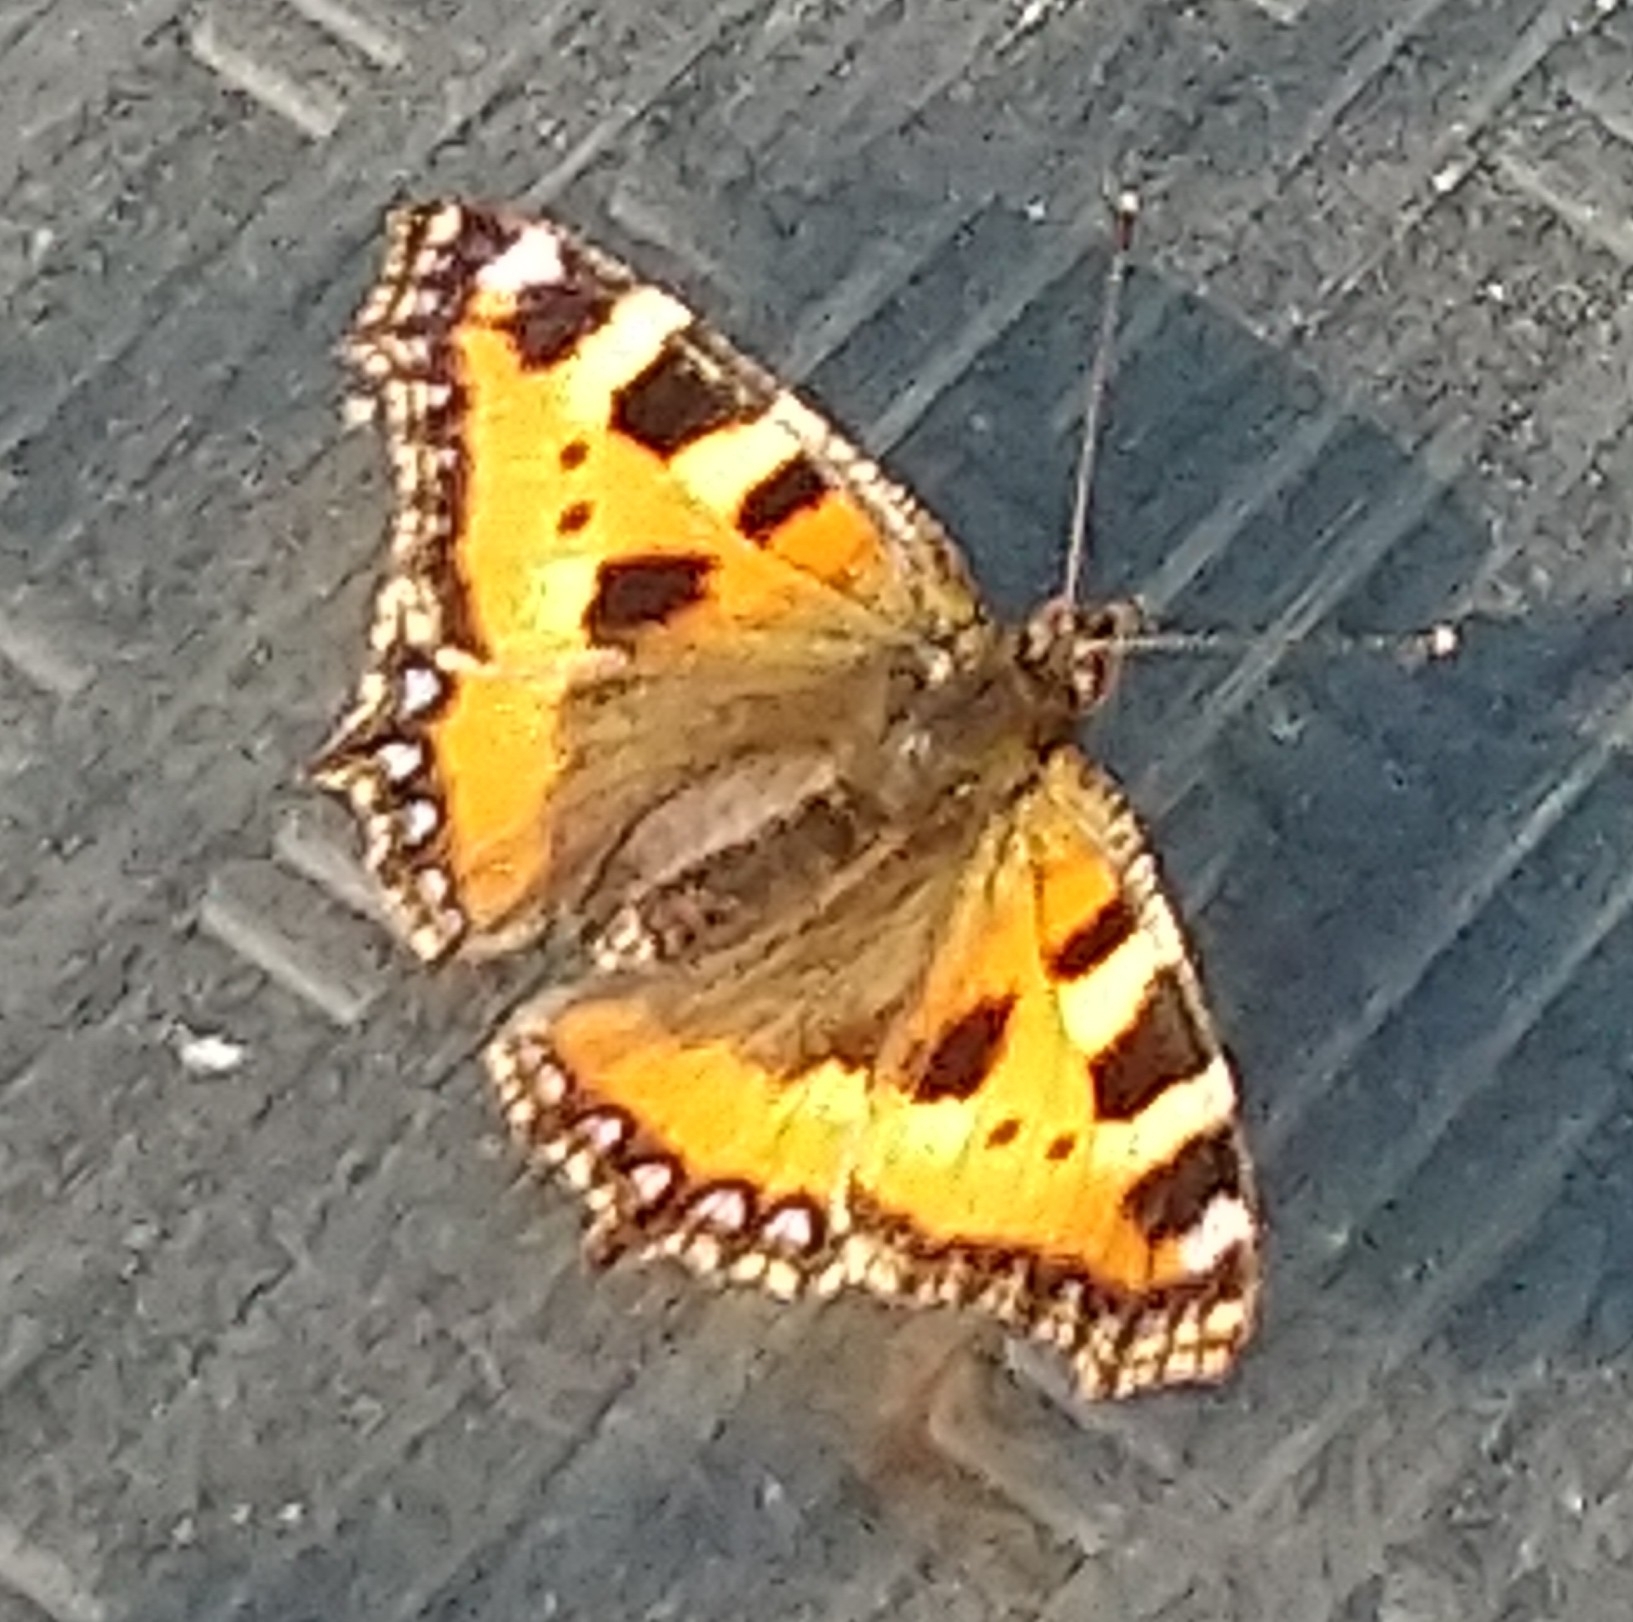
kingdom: Animalia
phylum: Arthropoda
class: Insecta
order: Lepidoptera
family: Nymphalidae
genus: Aglais
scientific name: Aglais urticae
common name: Small tortoiseshell
